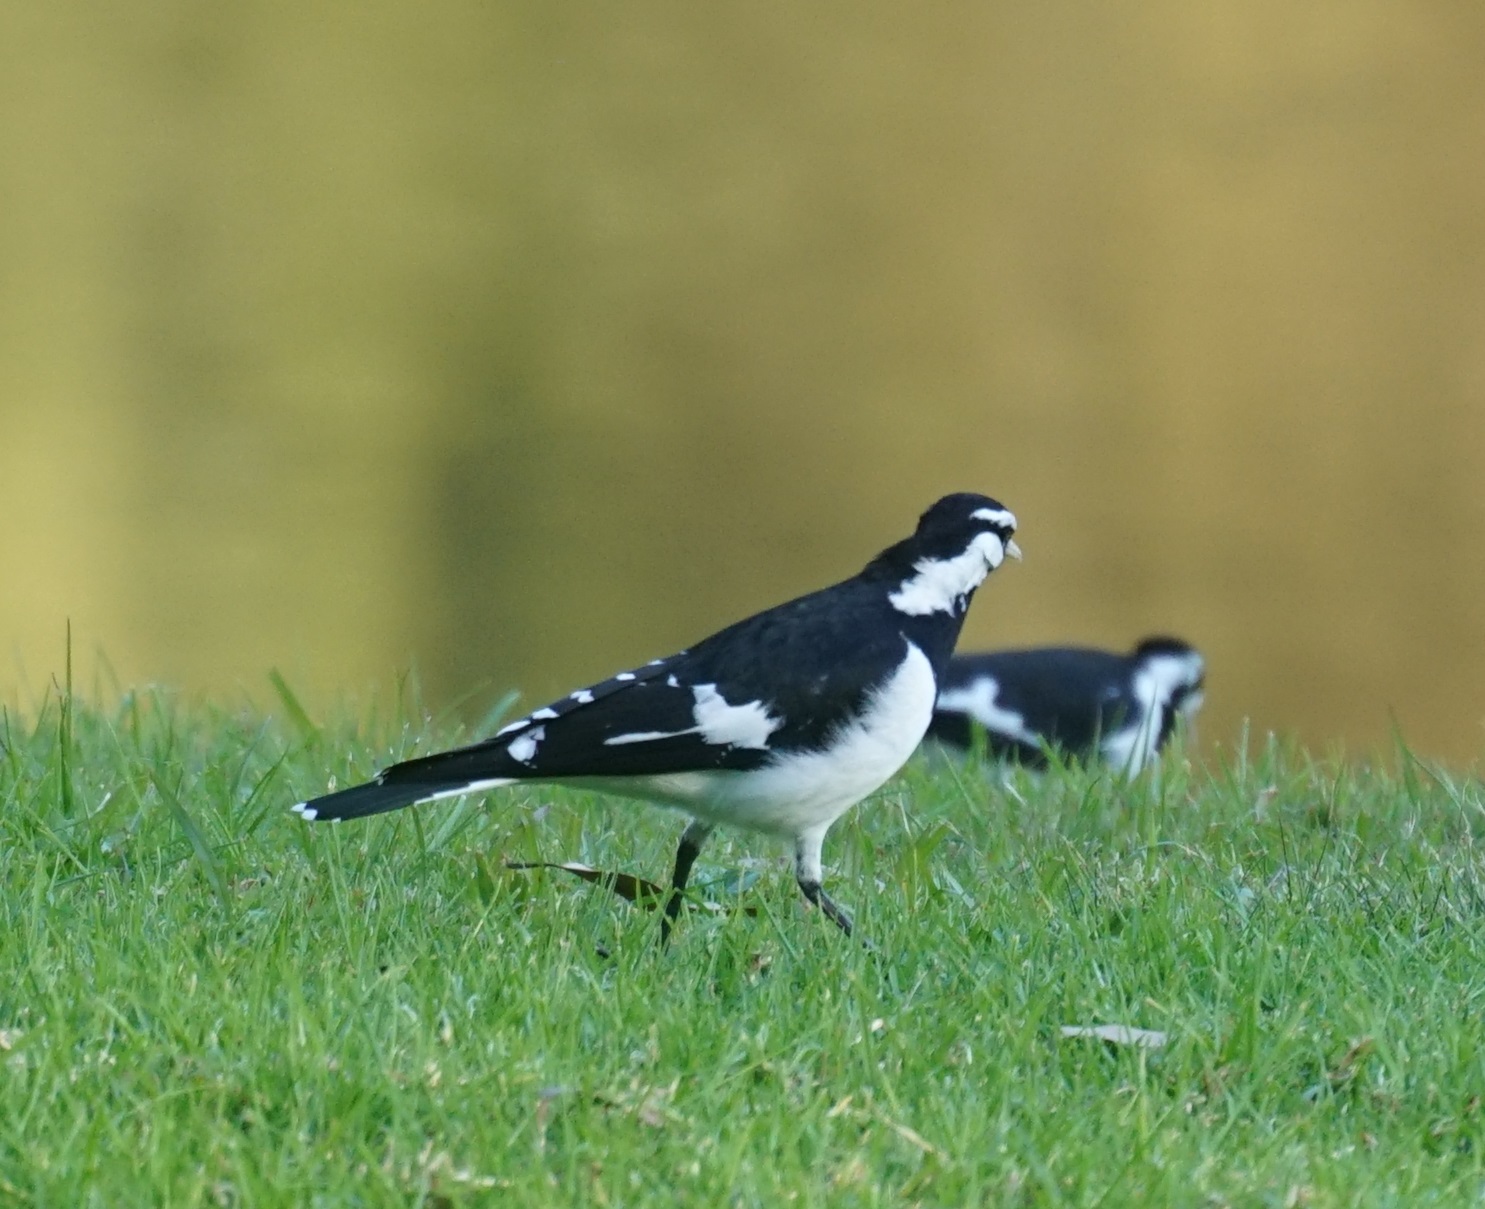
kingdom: Animalia
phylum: Chordata
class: Aves
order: Passeriformes
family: Monarchidae
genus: Grallina
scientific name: Grallina cyanoleuca
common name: Magpie-lark
